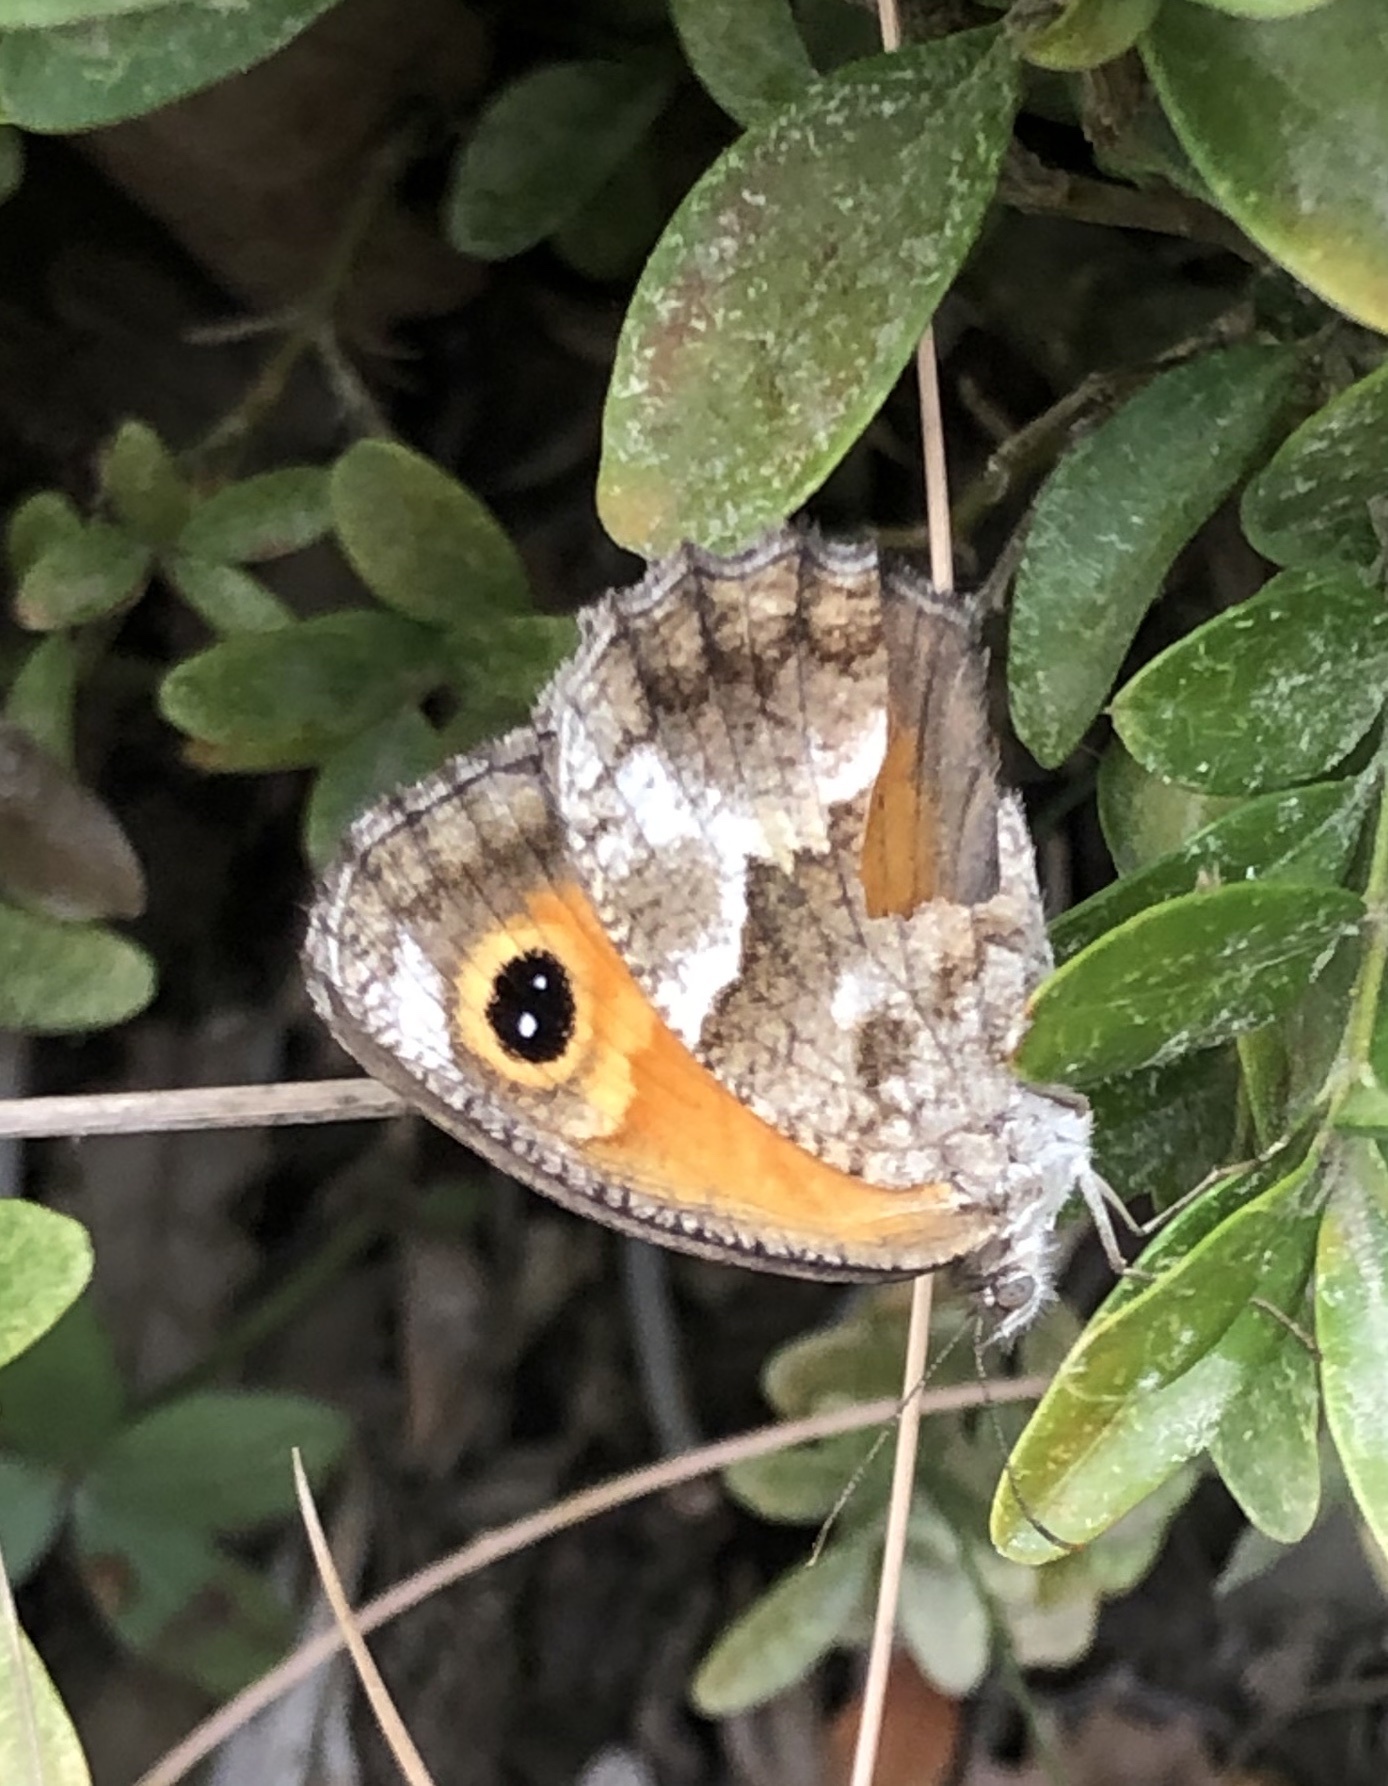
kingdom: Animalia
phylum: Arthropoda
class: Insecta
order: Lepidoptera
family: Nymphalidae
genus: Pyronia
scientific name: Pyronia cecilia
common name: Southern gatekeeper
